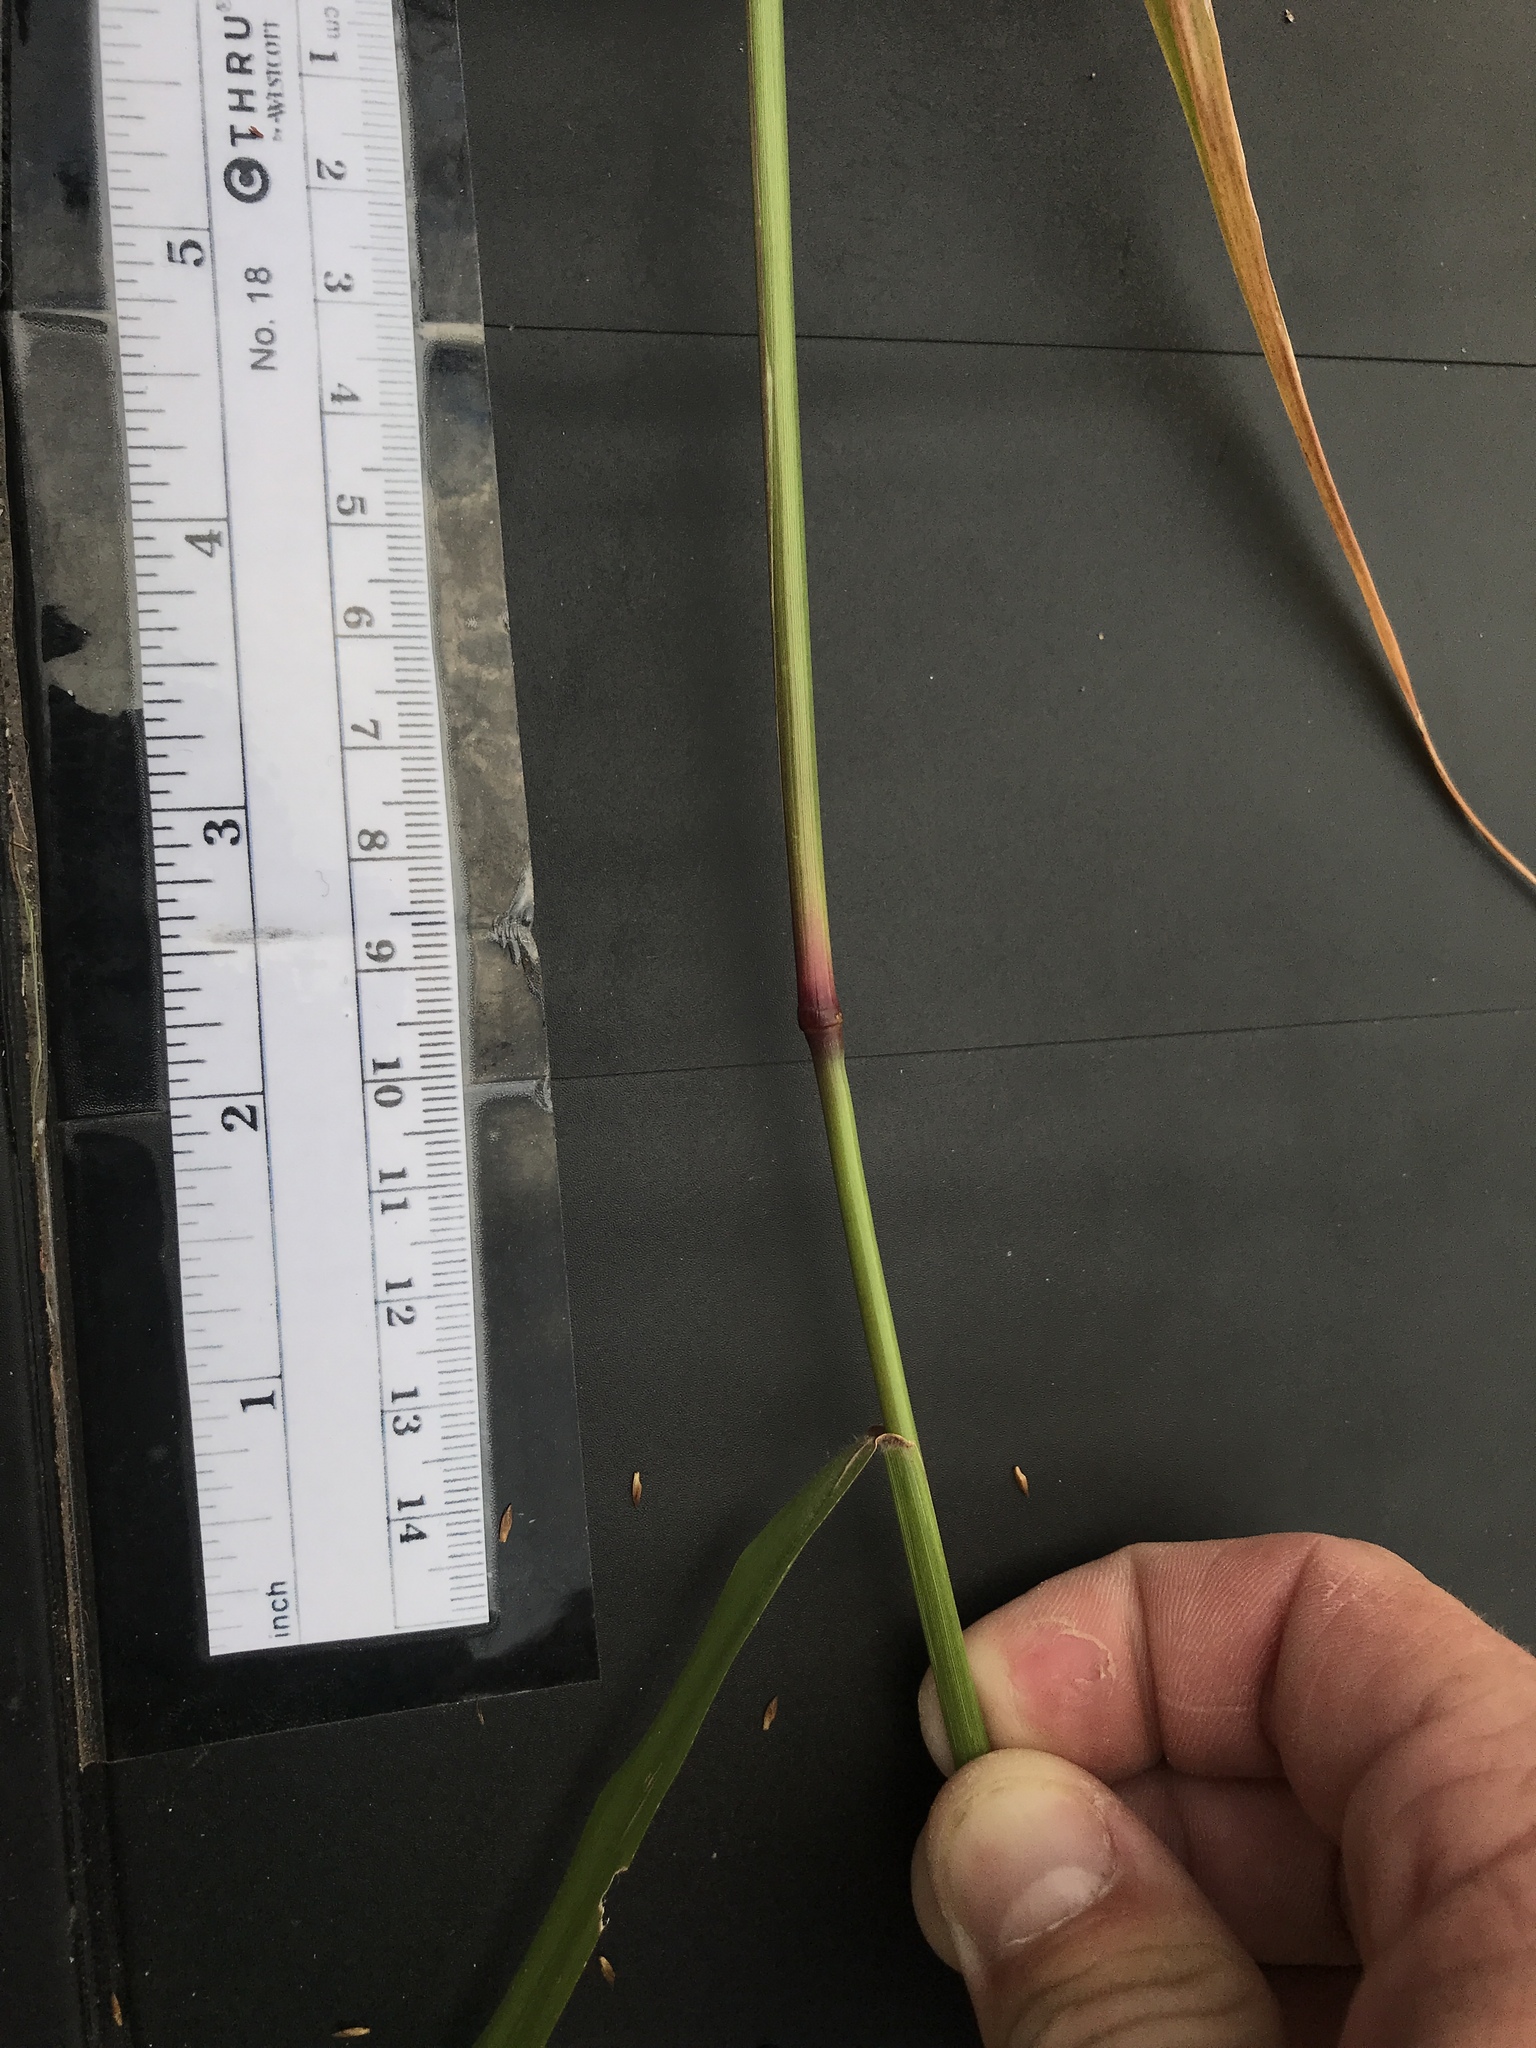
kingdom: Plantae
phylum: Tracheophyta
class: Liliopsida
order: Poales
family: Poaceae
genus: Tridens
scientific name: Tridens flavus
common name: Purpletop
